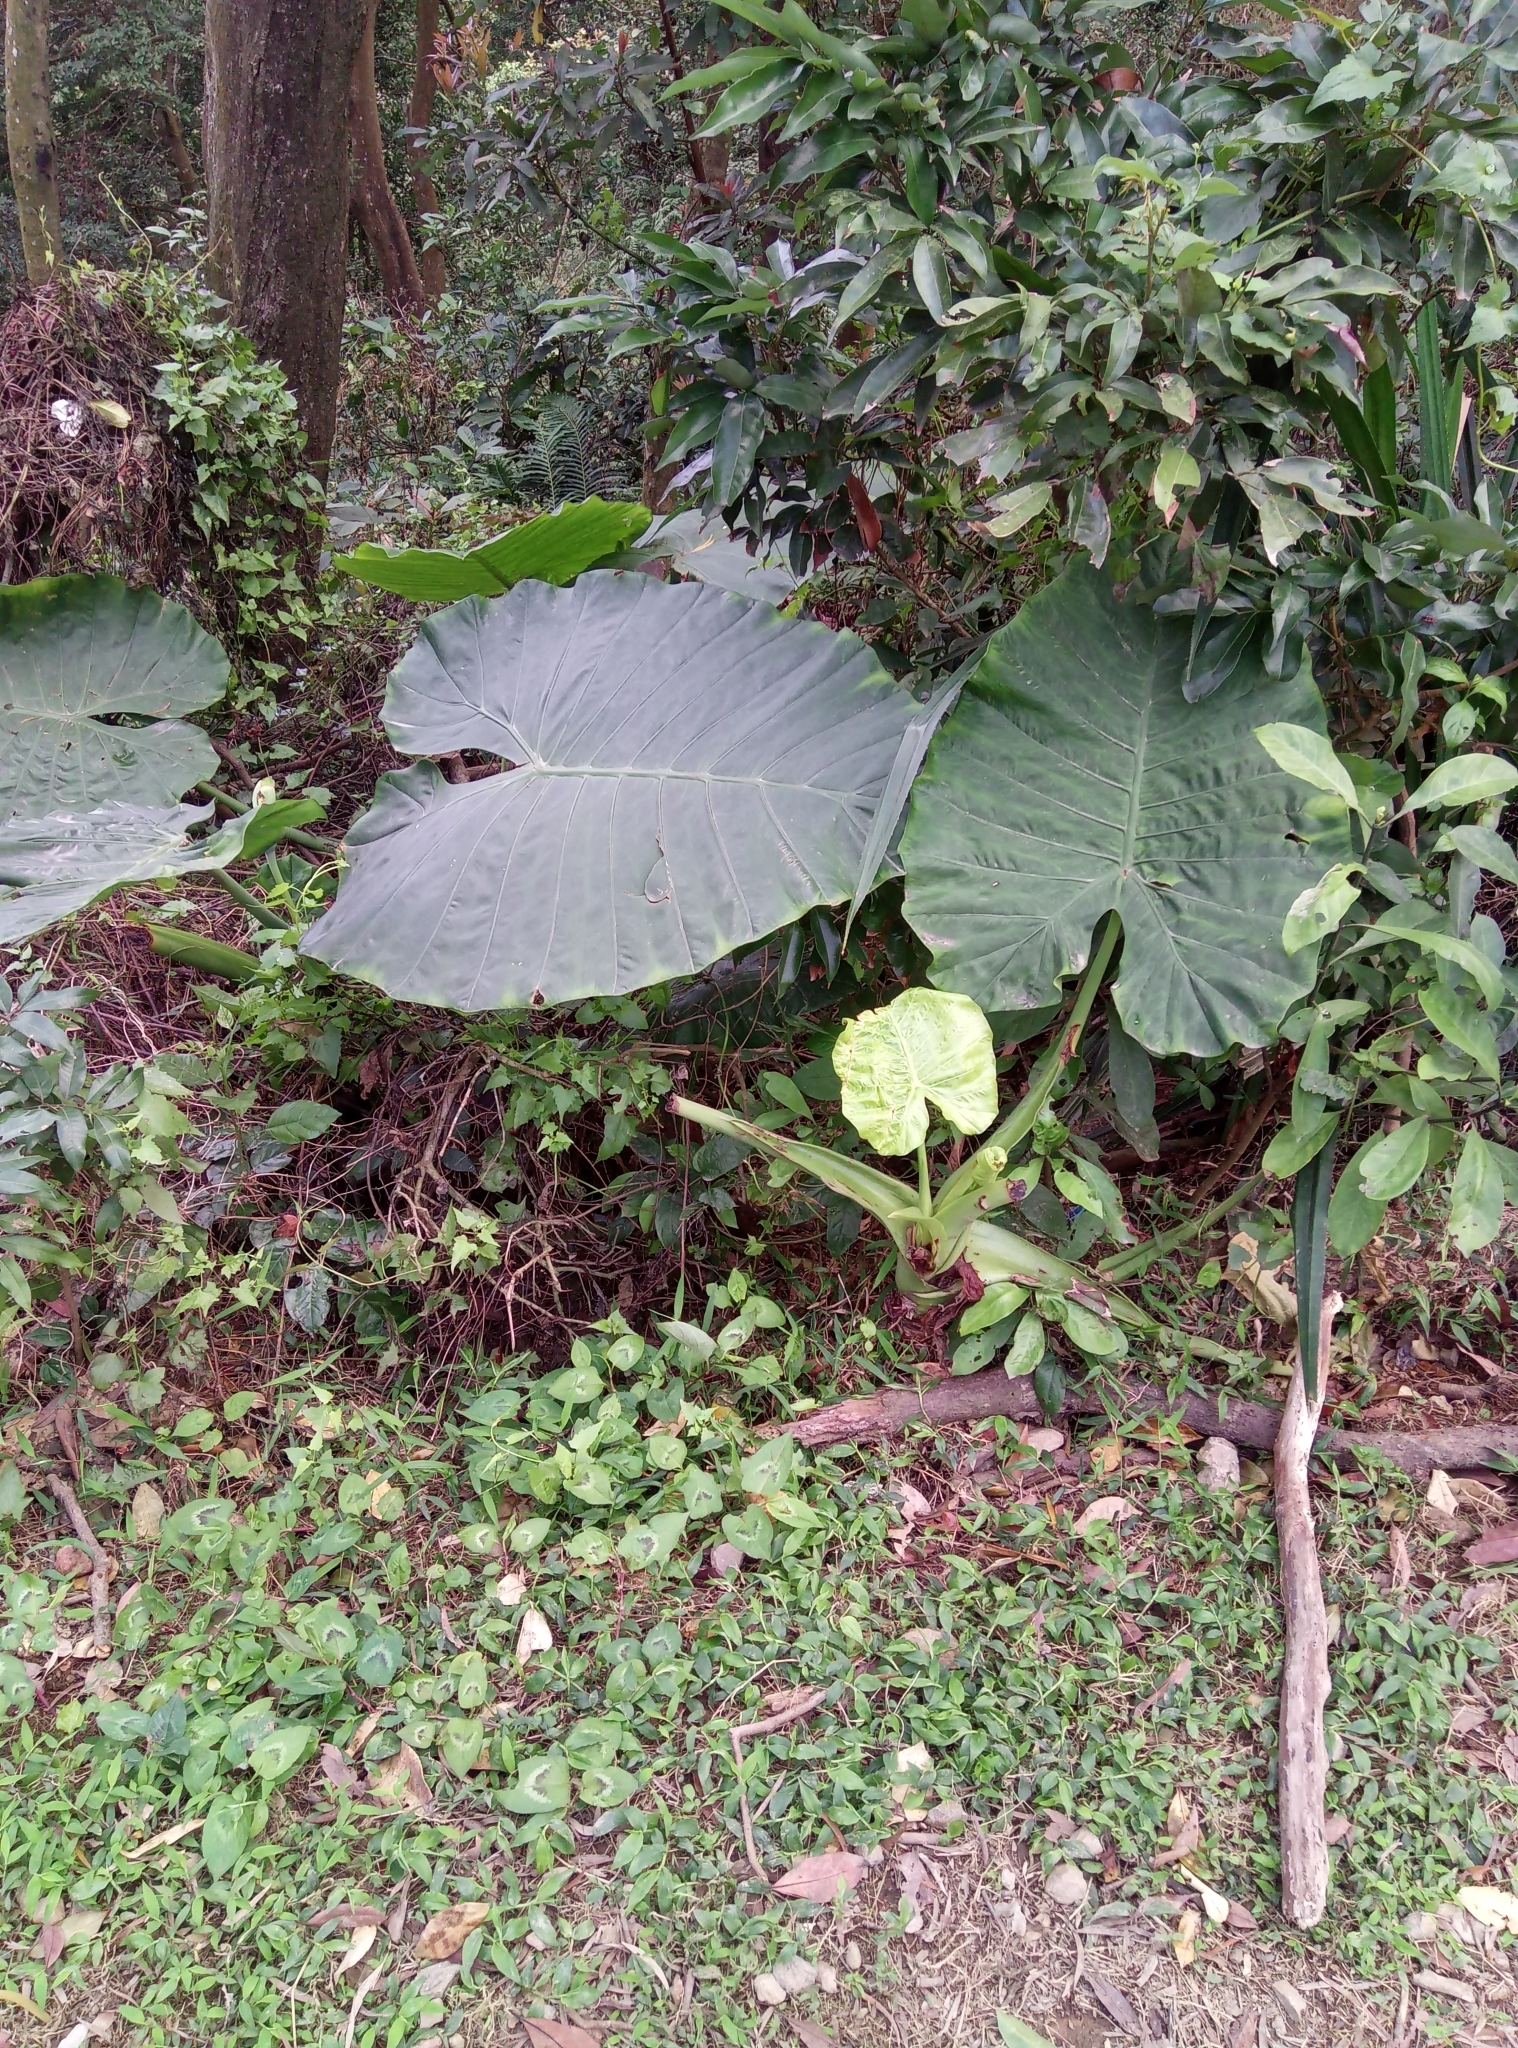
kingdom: Plantae
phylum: Tracheophyta
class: Liliopsida
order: Alismatales
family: Araceae
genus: Alocasia
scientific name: Alocasia odora
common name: Asian taro
